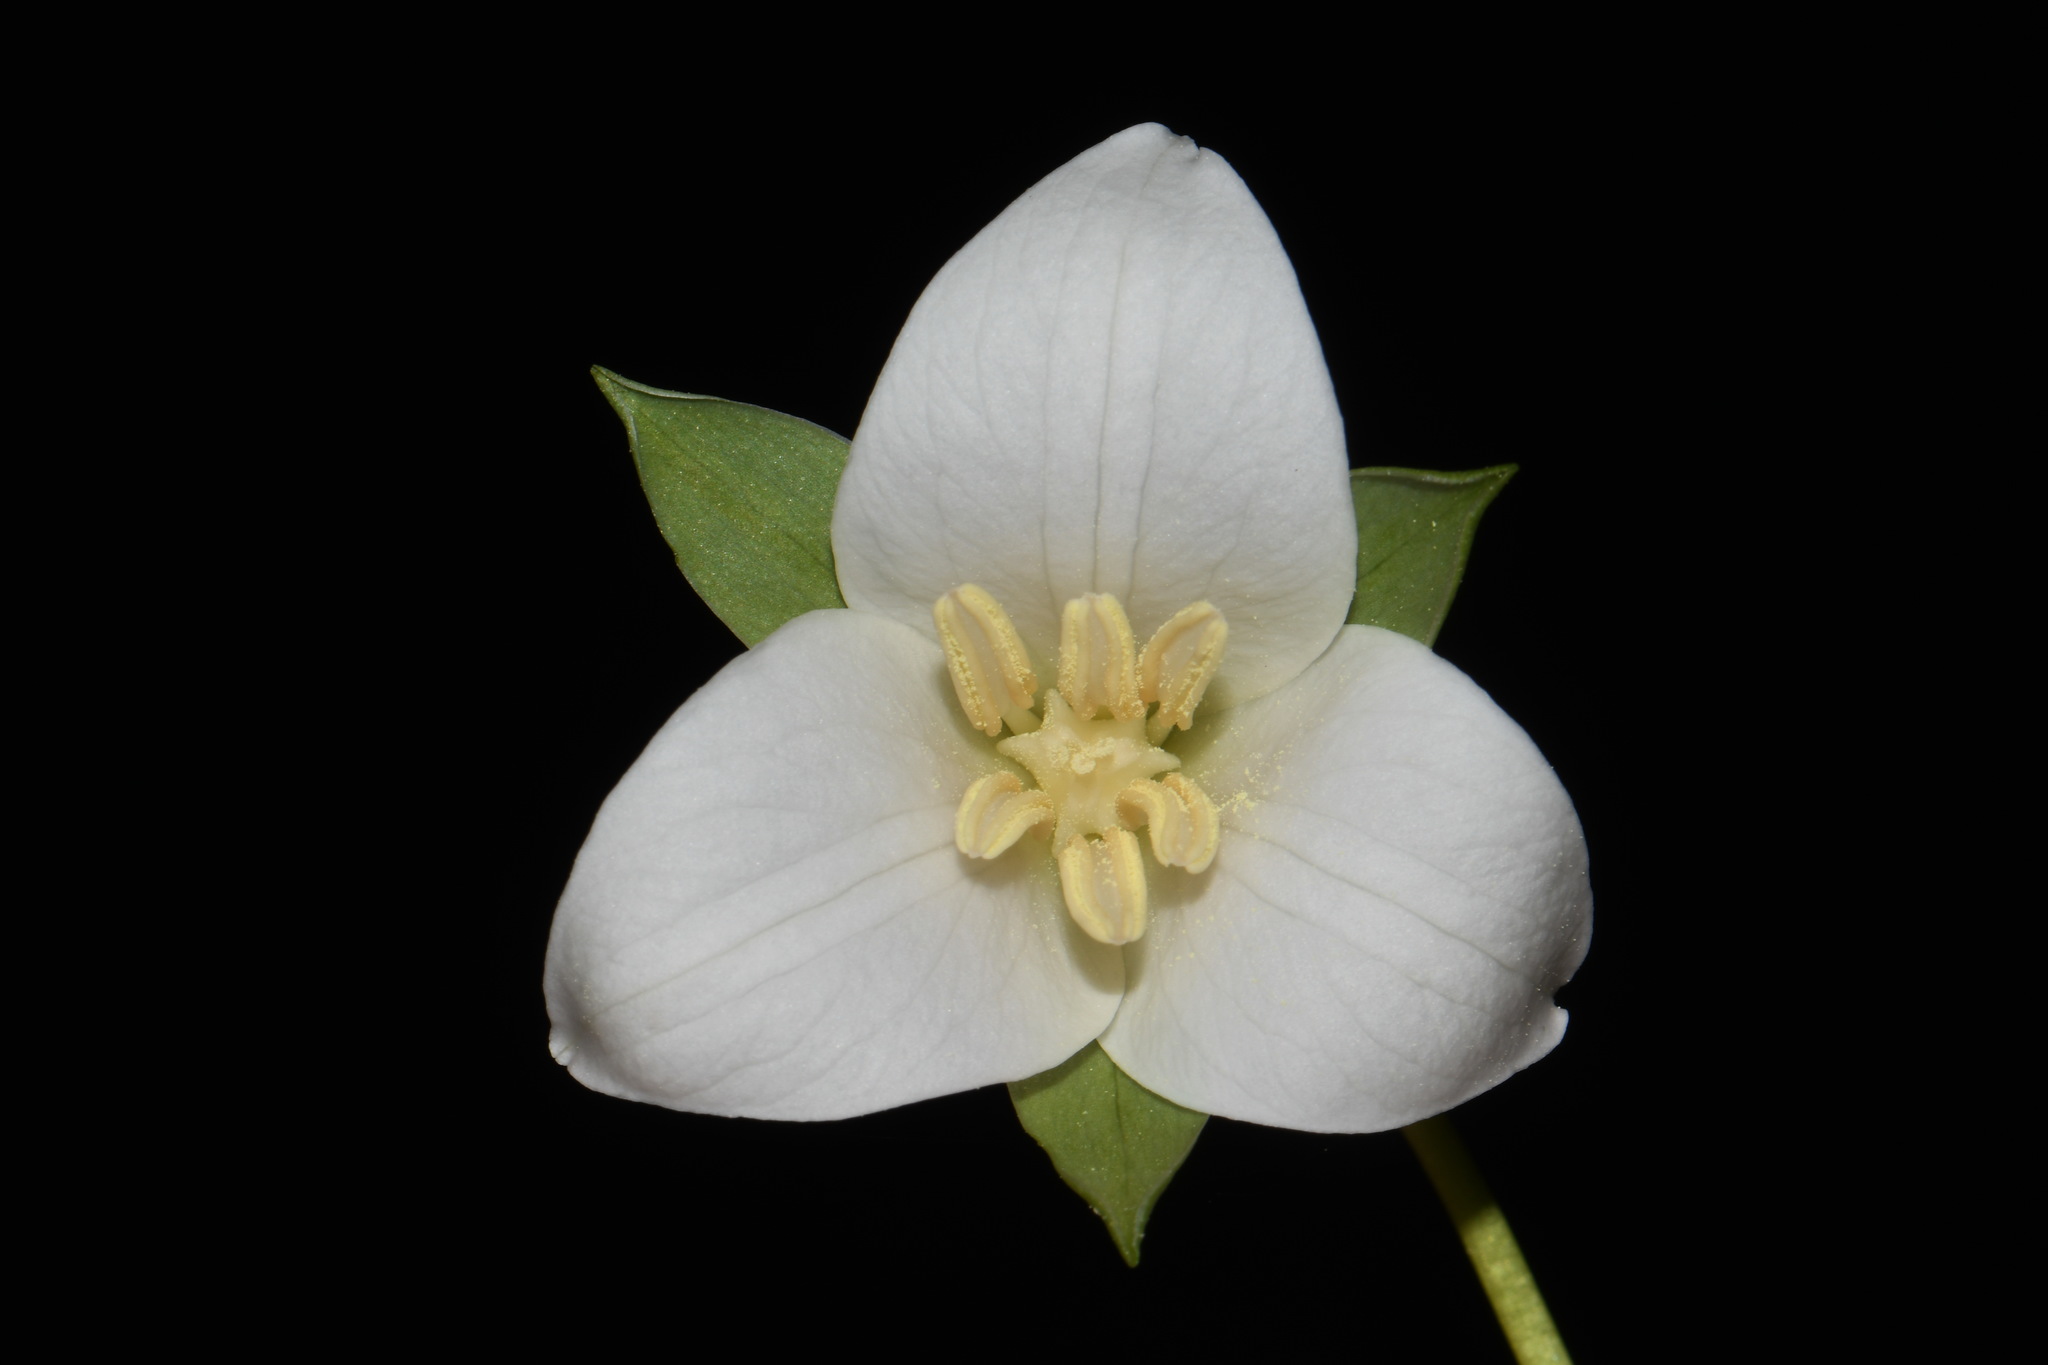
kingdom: Plantae
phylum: Tracheophyta
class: Liliopsida
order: Liliales
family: Melanthiaceae
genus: Trillium
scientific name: Trillium flexipes
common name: Drooping trillium
